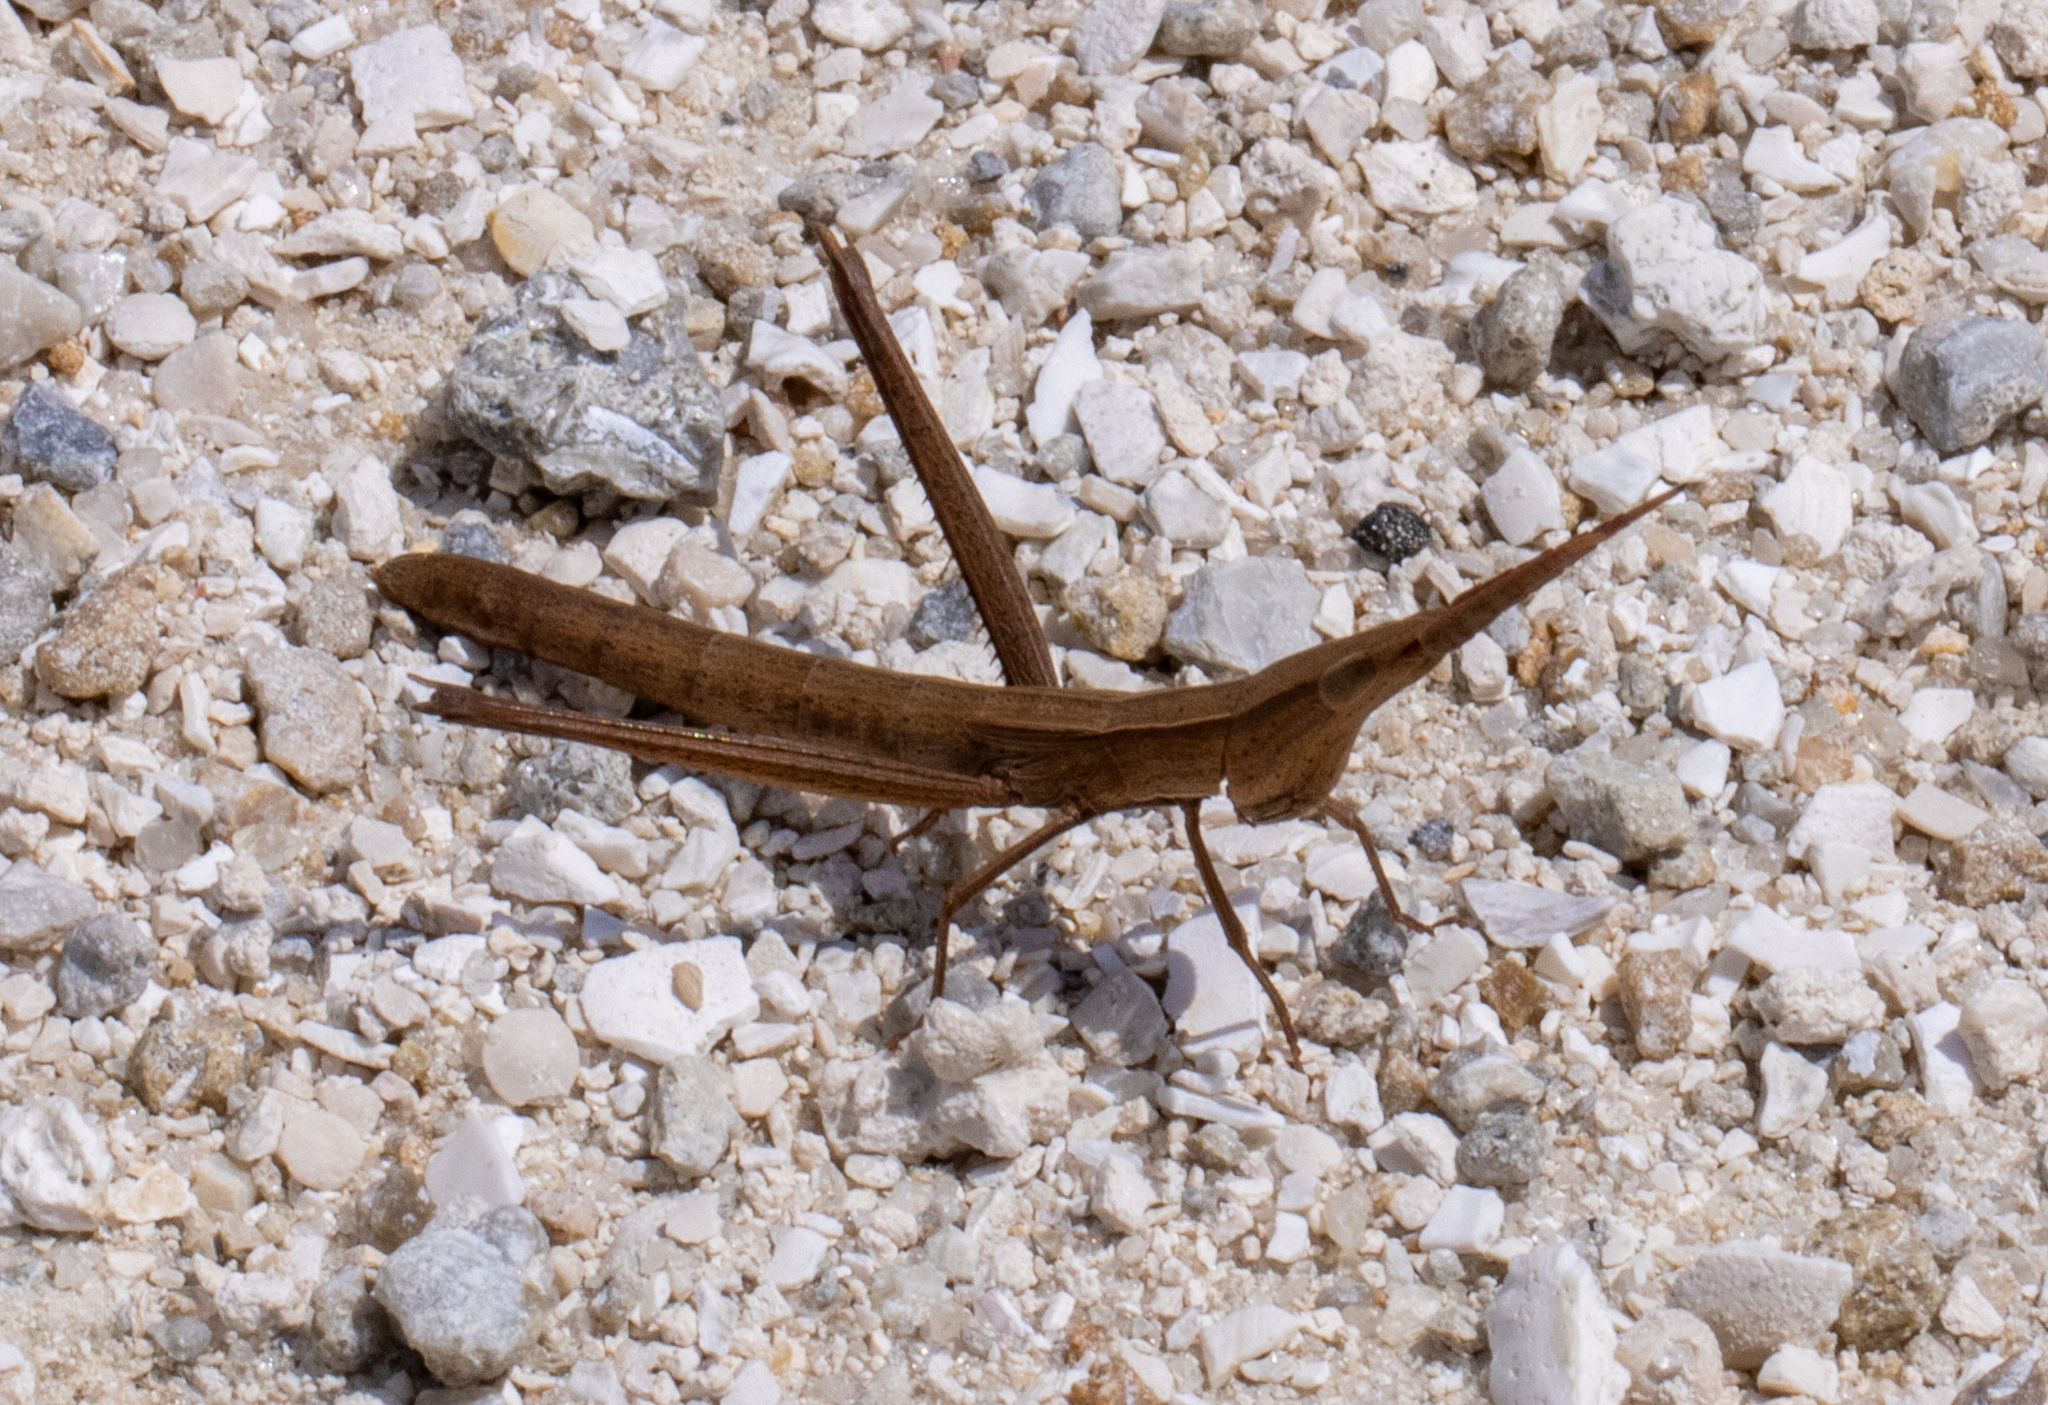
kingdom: Animalia
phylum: Arthropoda
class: Insecta
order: Orthoptera
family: Acrididae
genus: Achurum
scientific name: Achurum carinatum
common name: Long-headed toothpick grasshopper
